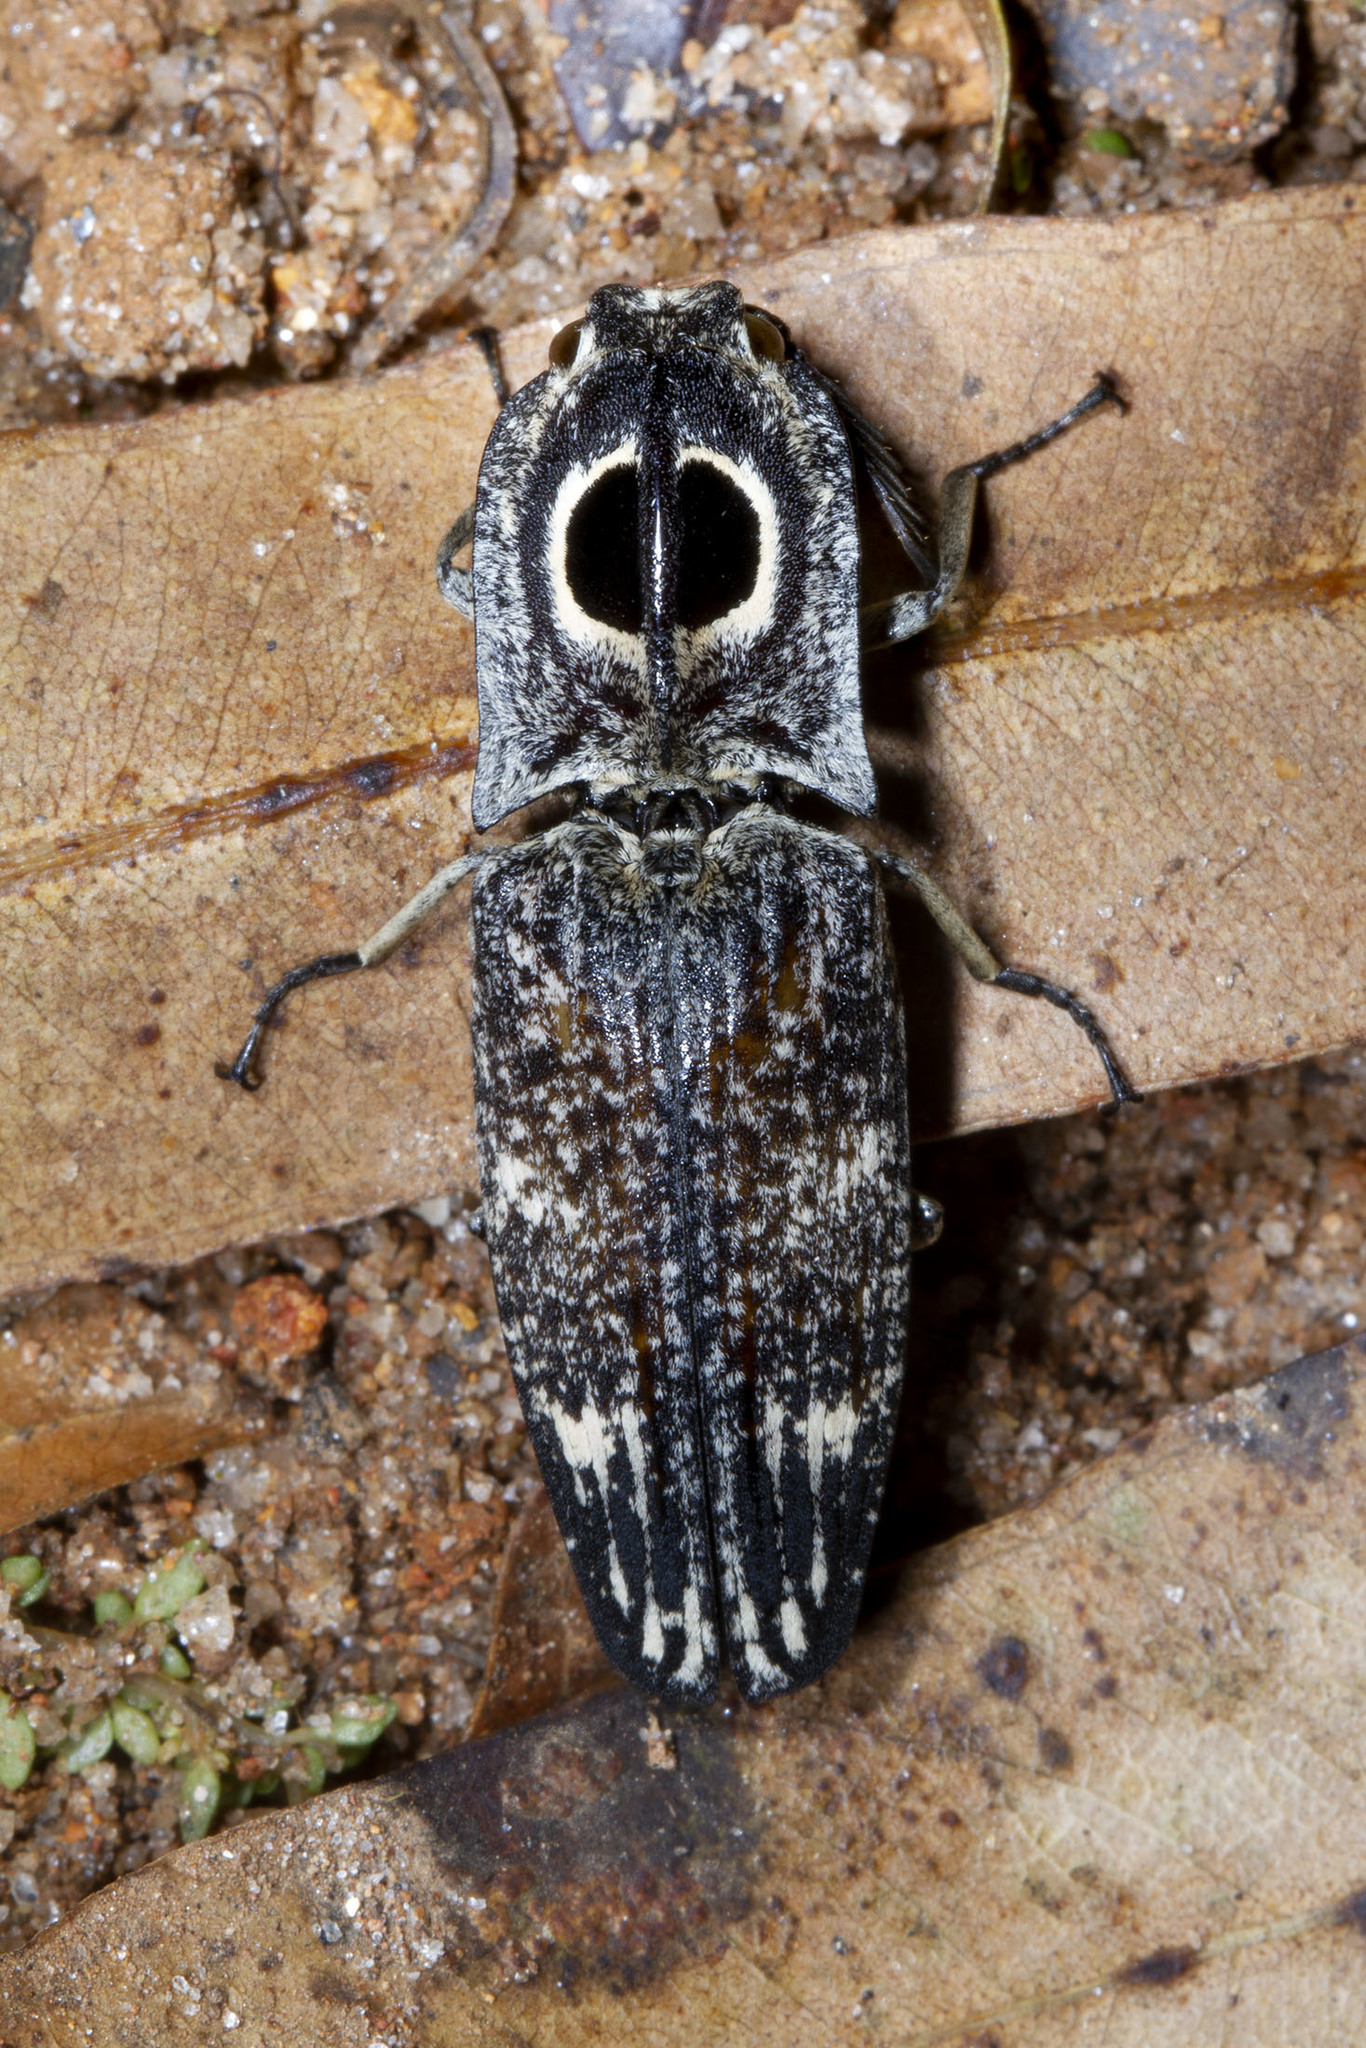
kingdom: Animalia
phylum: Arthropoda
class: Insecta
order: Coleoptera
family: Elateridae
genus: Neolycoreus
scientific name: Neolycoreus
